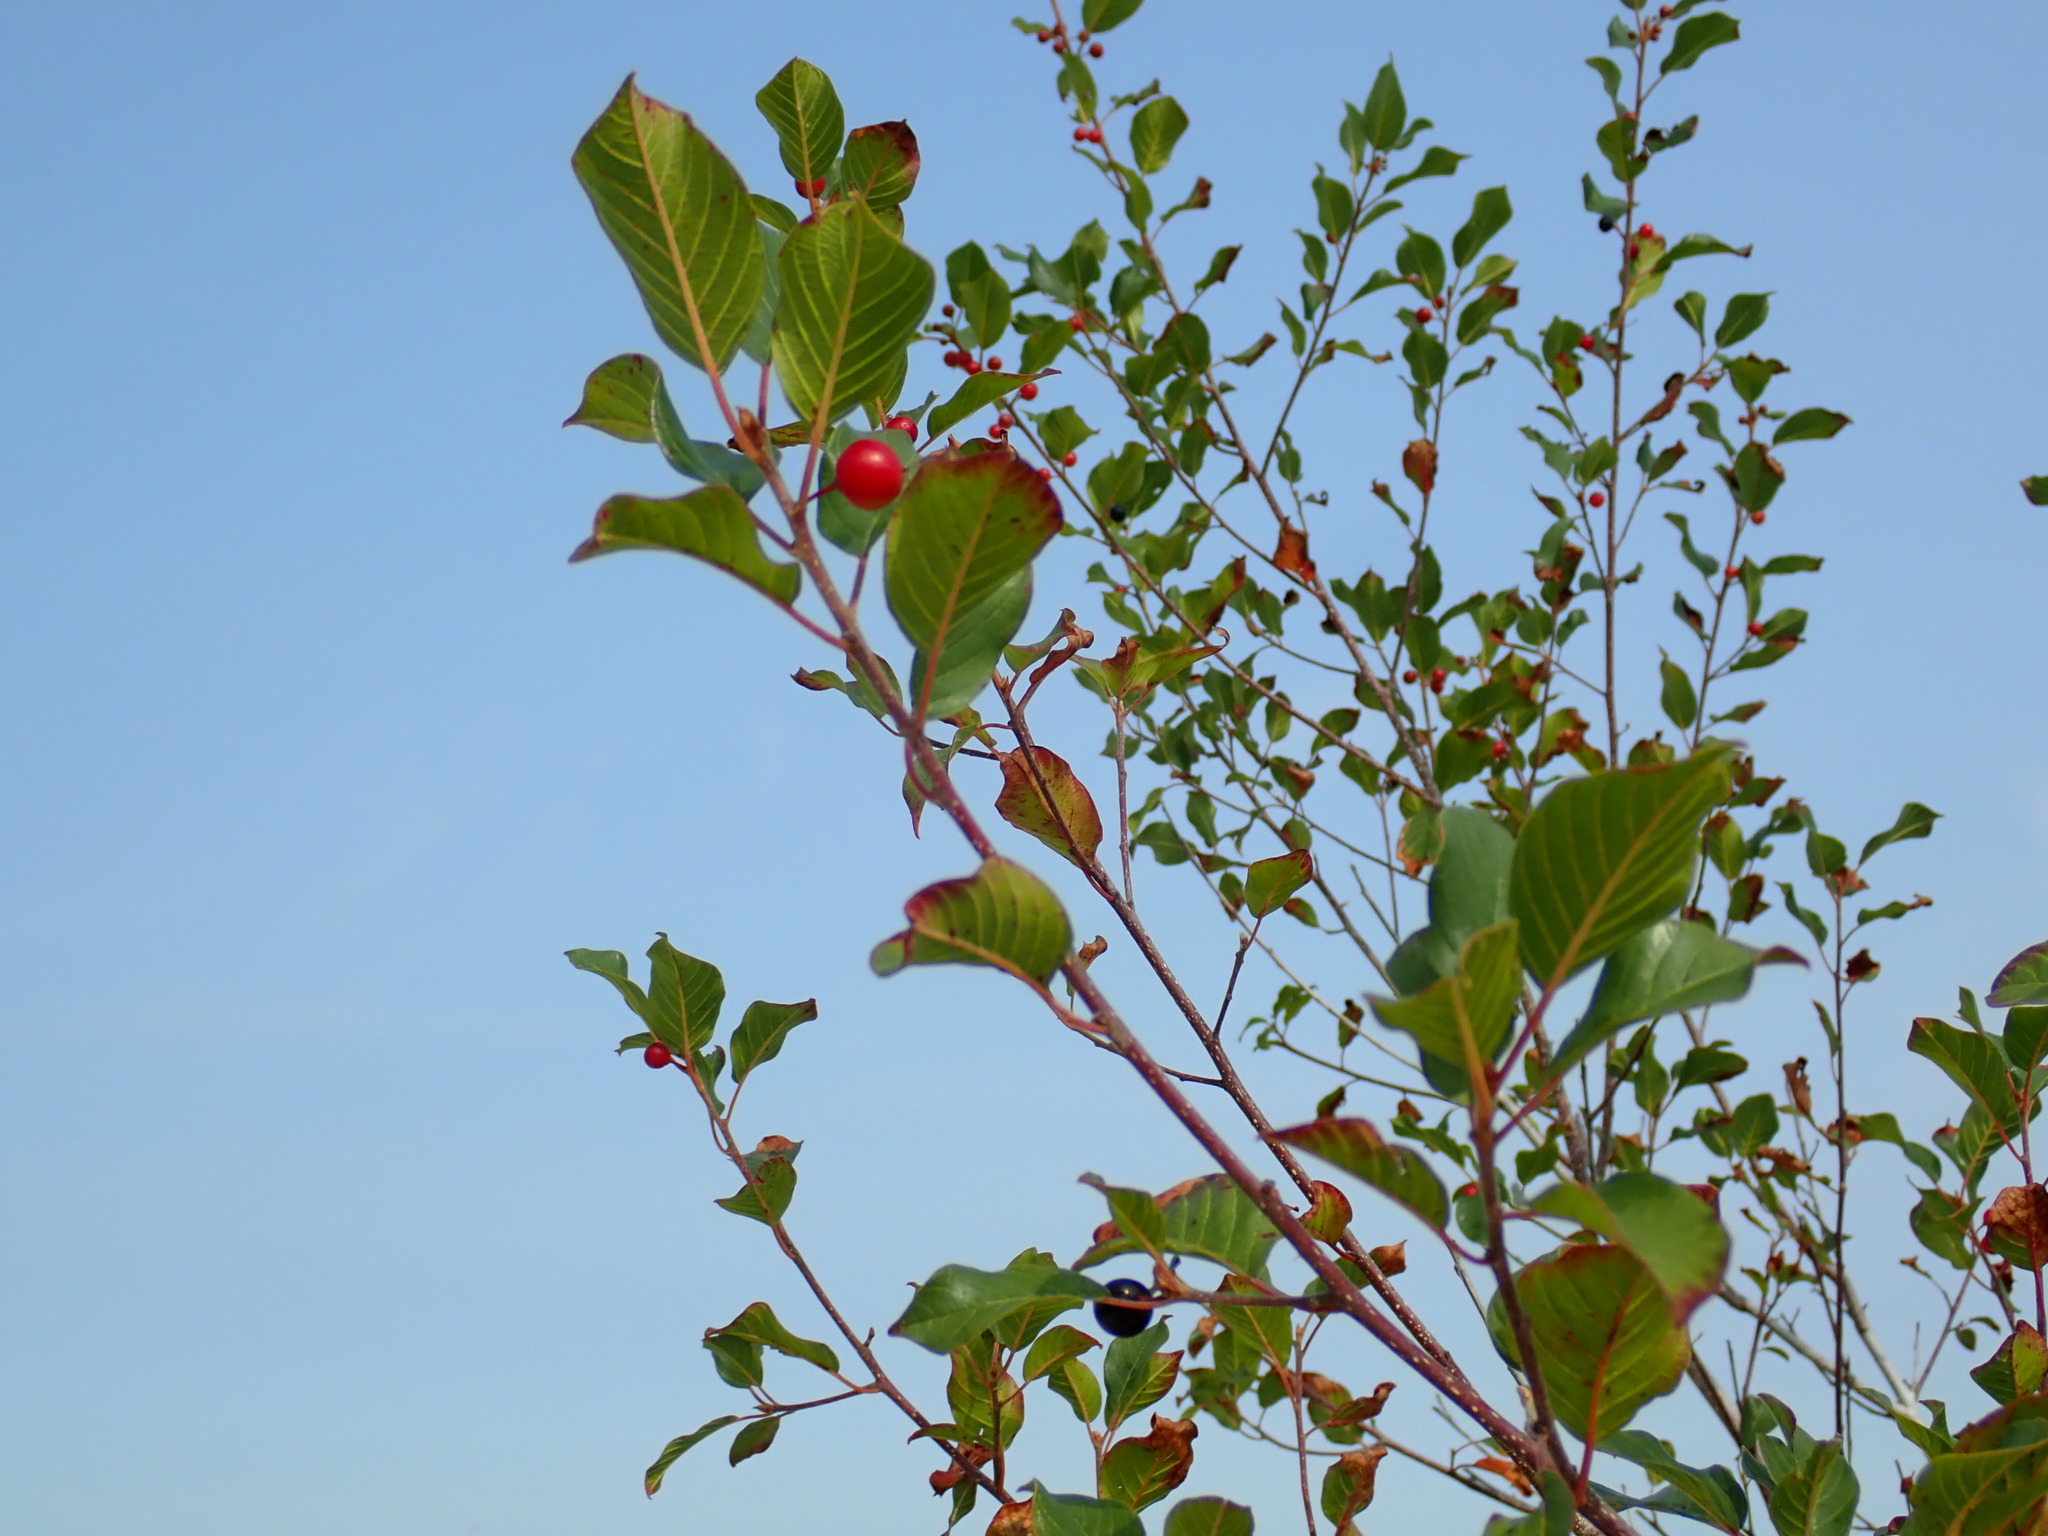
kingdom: Plantae
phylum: Tracheophyta
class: Magnoliopsida
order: Rosales
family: Rhamnaceae
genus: Frangula
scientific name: Frangula alnus
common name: Alder buckthorn
